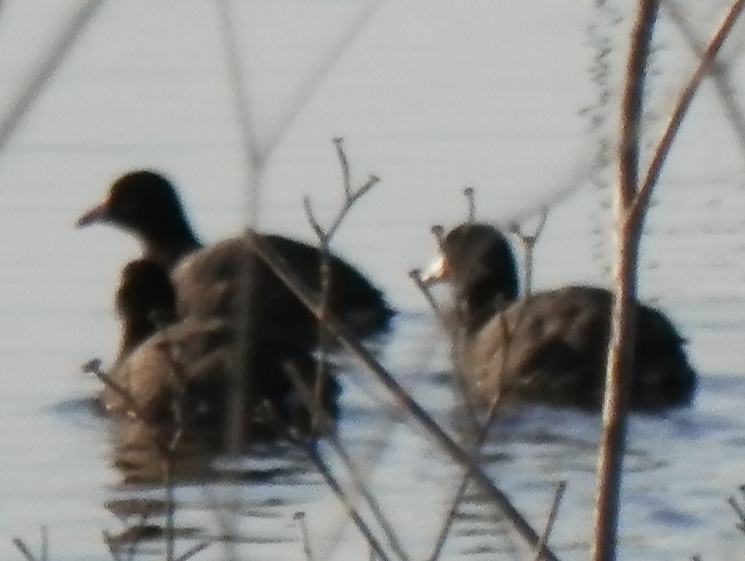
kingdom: Animalia
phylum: Chordata
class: Aves
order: Gruiformes
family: Rallidae
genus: Fulica
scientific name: Fulica americana
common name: American coot
